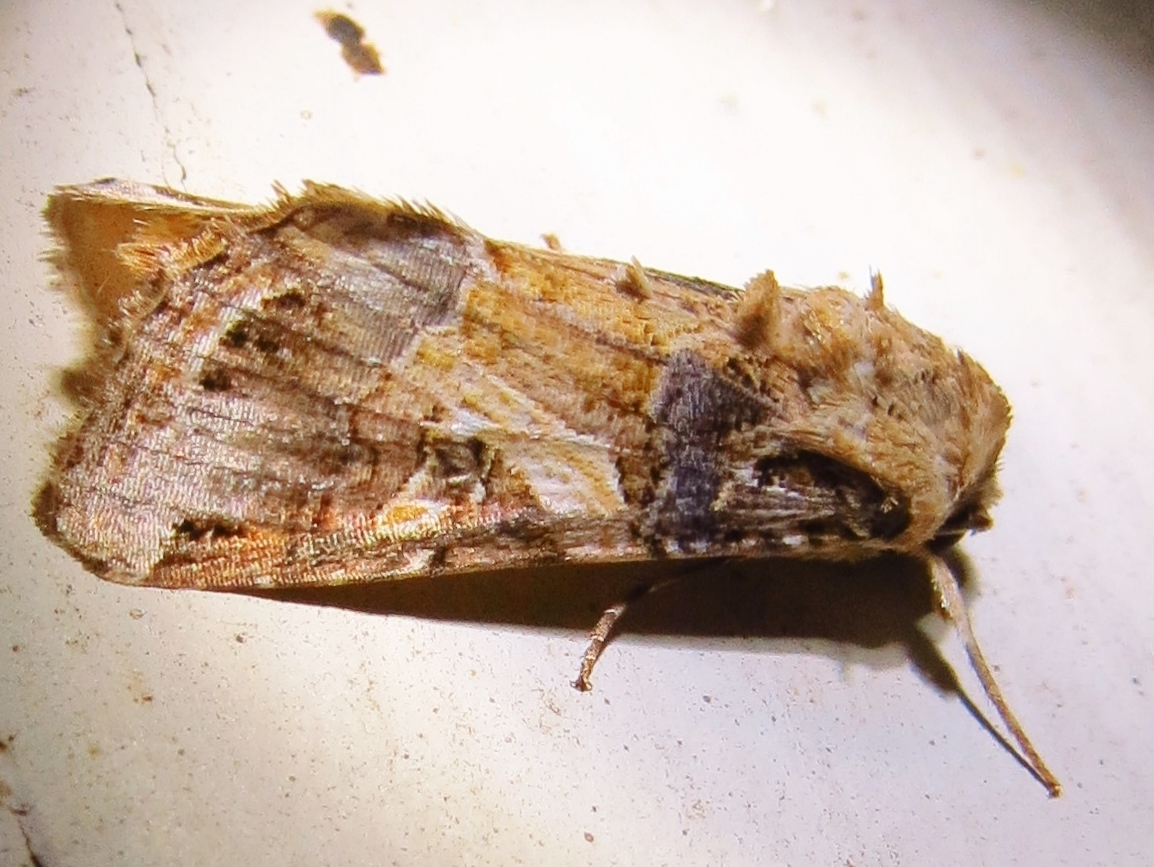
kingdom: Animalia
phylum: Arthropoda
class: Insecta
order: Lepidoptera
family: Noctuidae
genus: Spodoptera
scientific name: Spodoptera ornithogalli
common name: Yellow-striped armyworm
